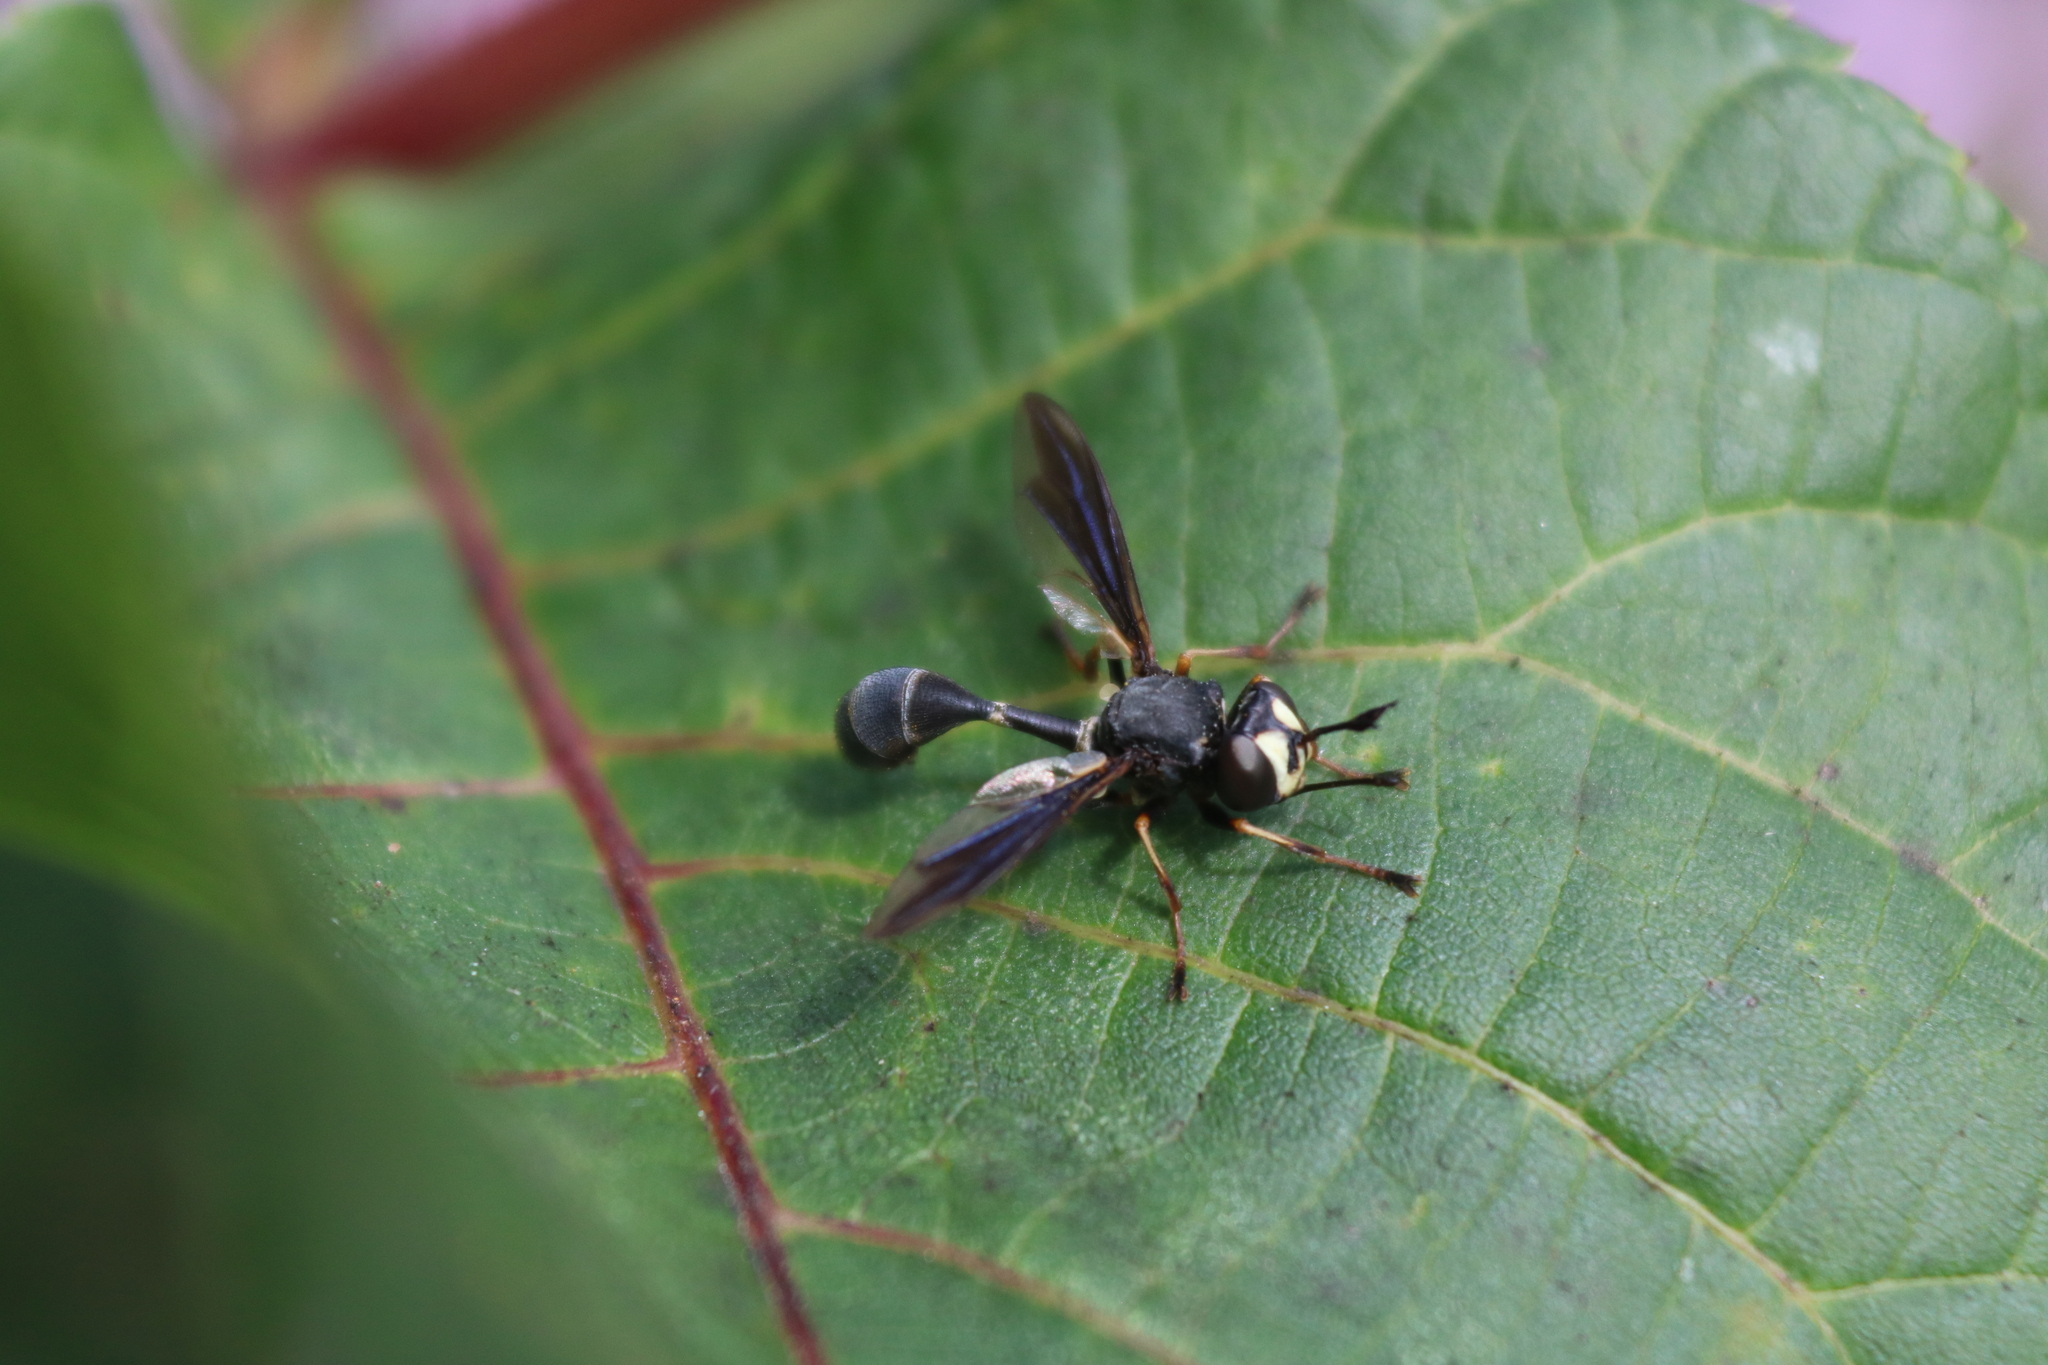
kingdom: Animalia
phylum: Arthropoda
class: Insecta
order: Diptera
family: Conopidae
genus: Physocephala
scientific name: Physocephala tibialis
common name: Common eastern physocephala
